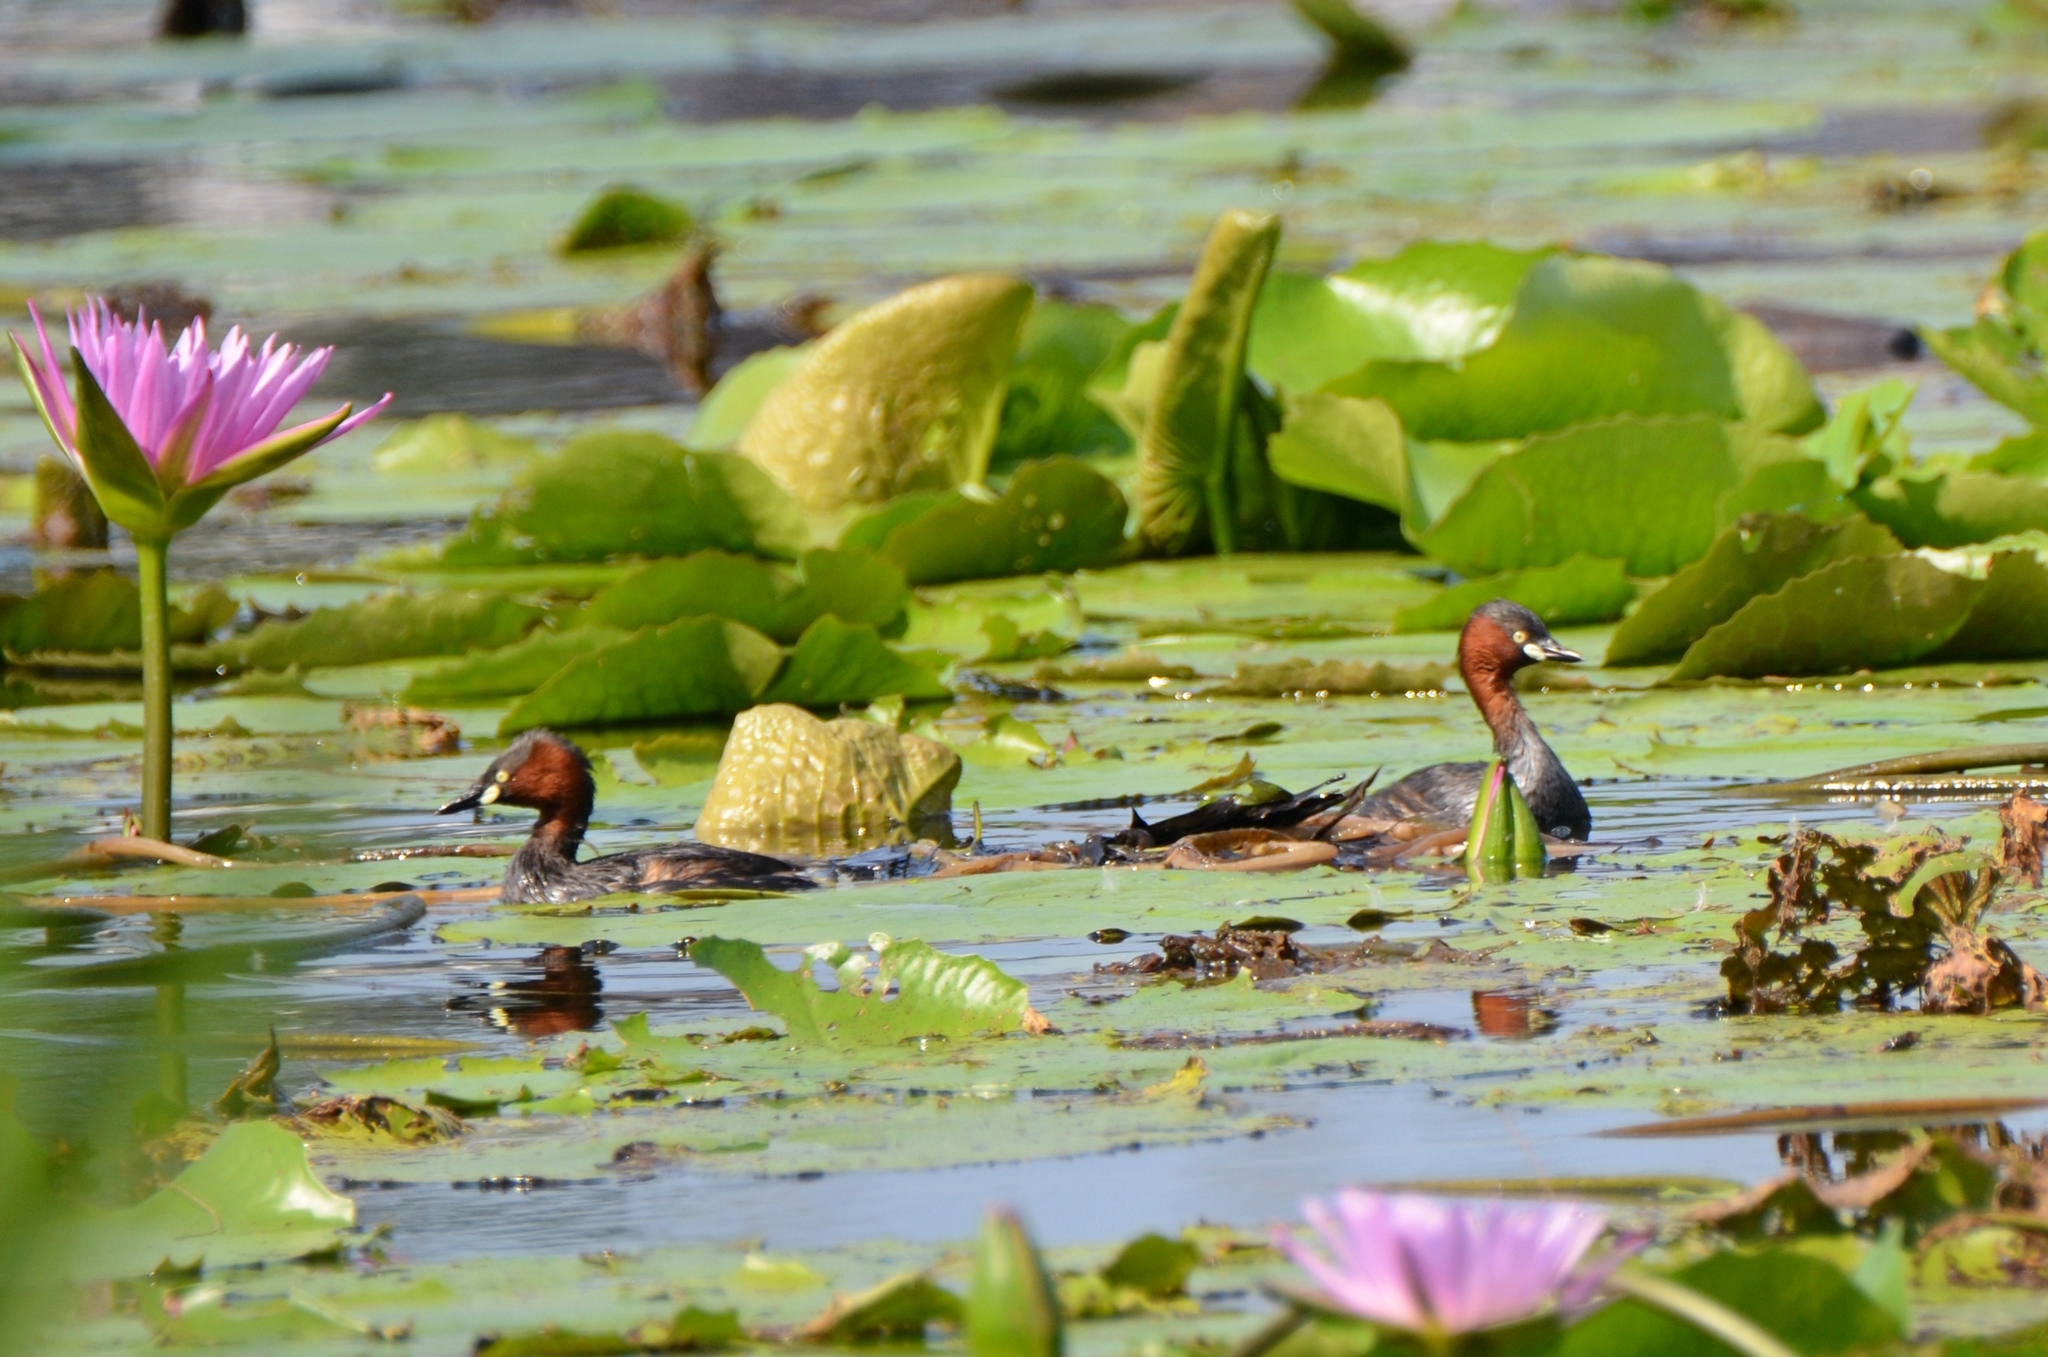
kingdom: Animalia
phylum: Chordata
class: Aves
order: Podicipediformes
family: Podicipedidae
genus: Tachybaptus
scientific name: Tachybaptus ruficollis
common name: Little grebe
